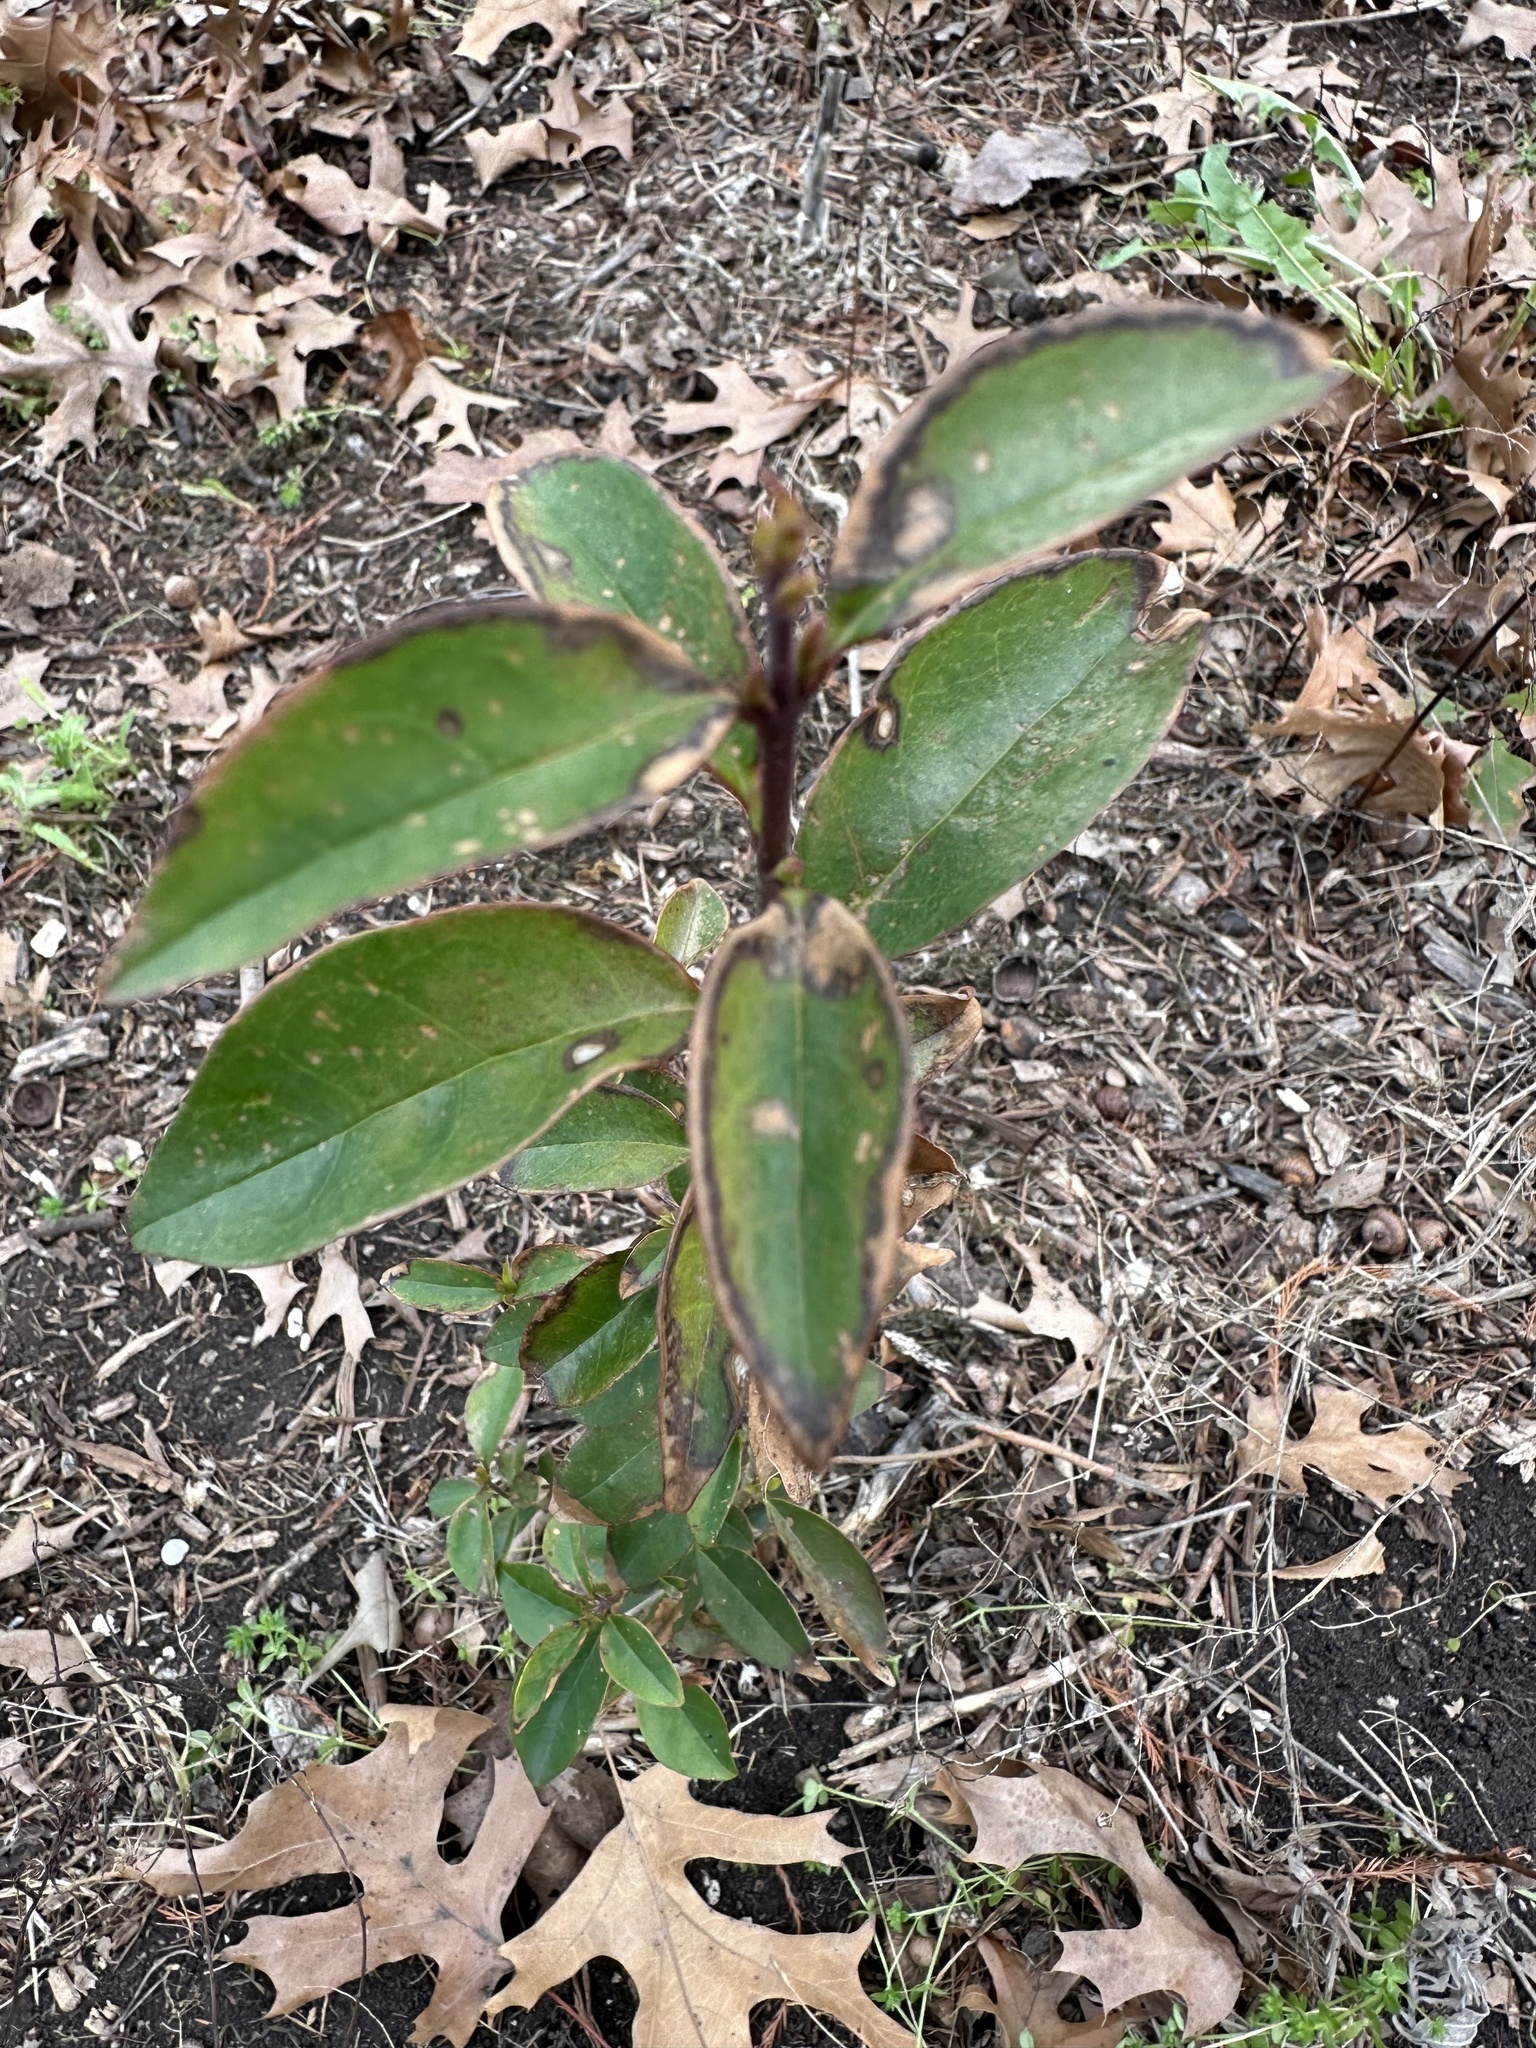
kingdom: Plantae
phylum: Tracheophyta
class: Magnoliopsida
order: Lamiales
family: Oleaceae
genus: Ligustrum
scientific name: Ligustrum lucidum
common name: Glossy privet
